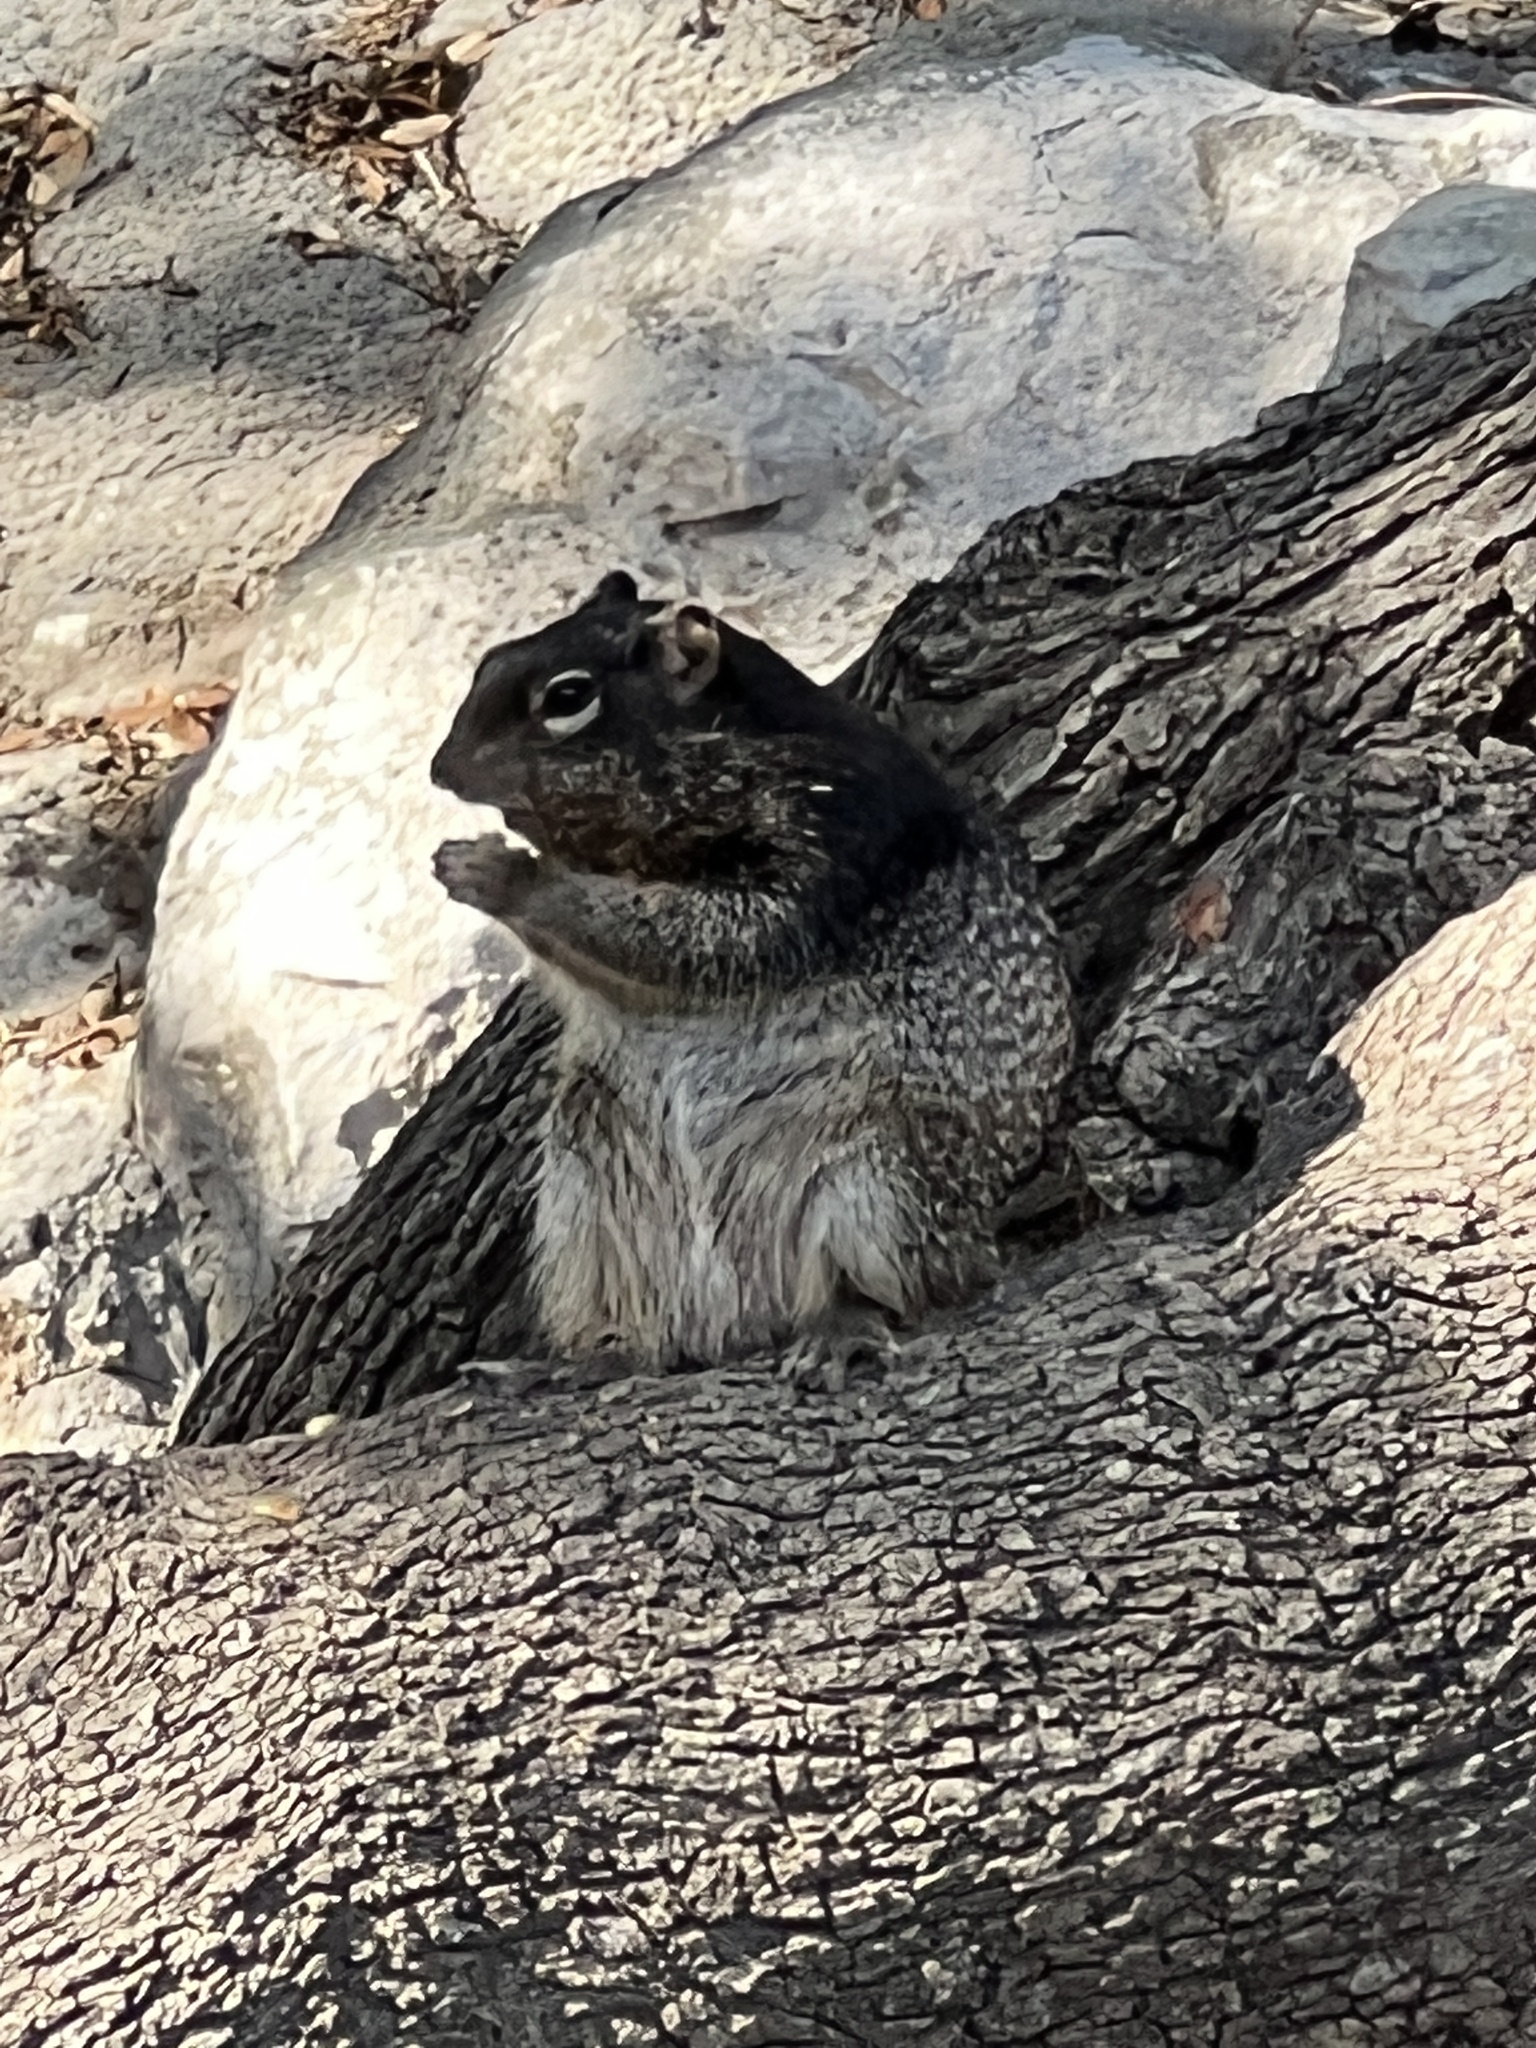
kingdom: Animalia
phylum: Chordata
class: Mammalia
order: Rodentia
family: Sciuridae
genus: Otospermophilus
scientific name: Otospermophilus variegatus
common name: Rock squirrel
